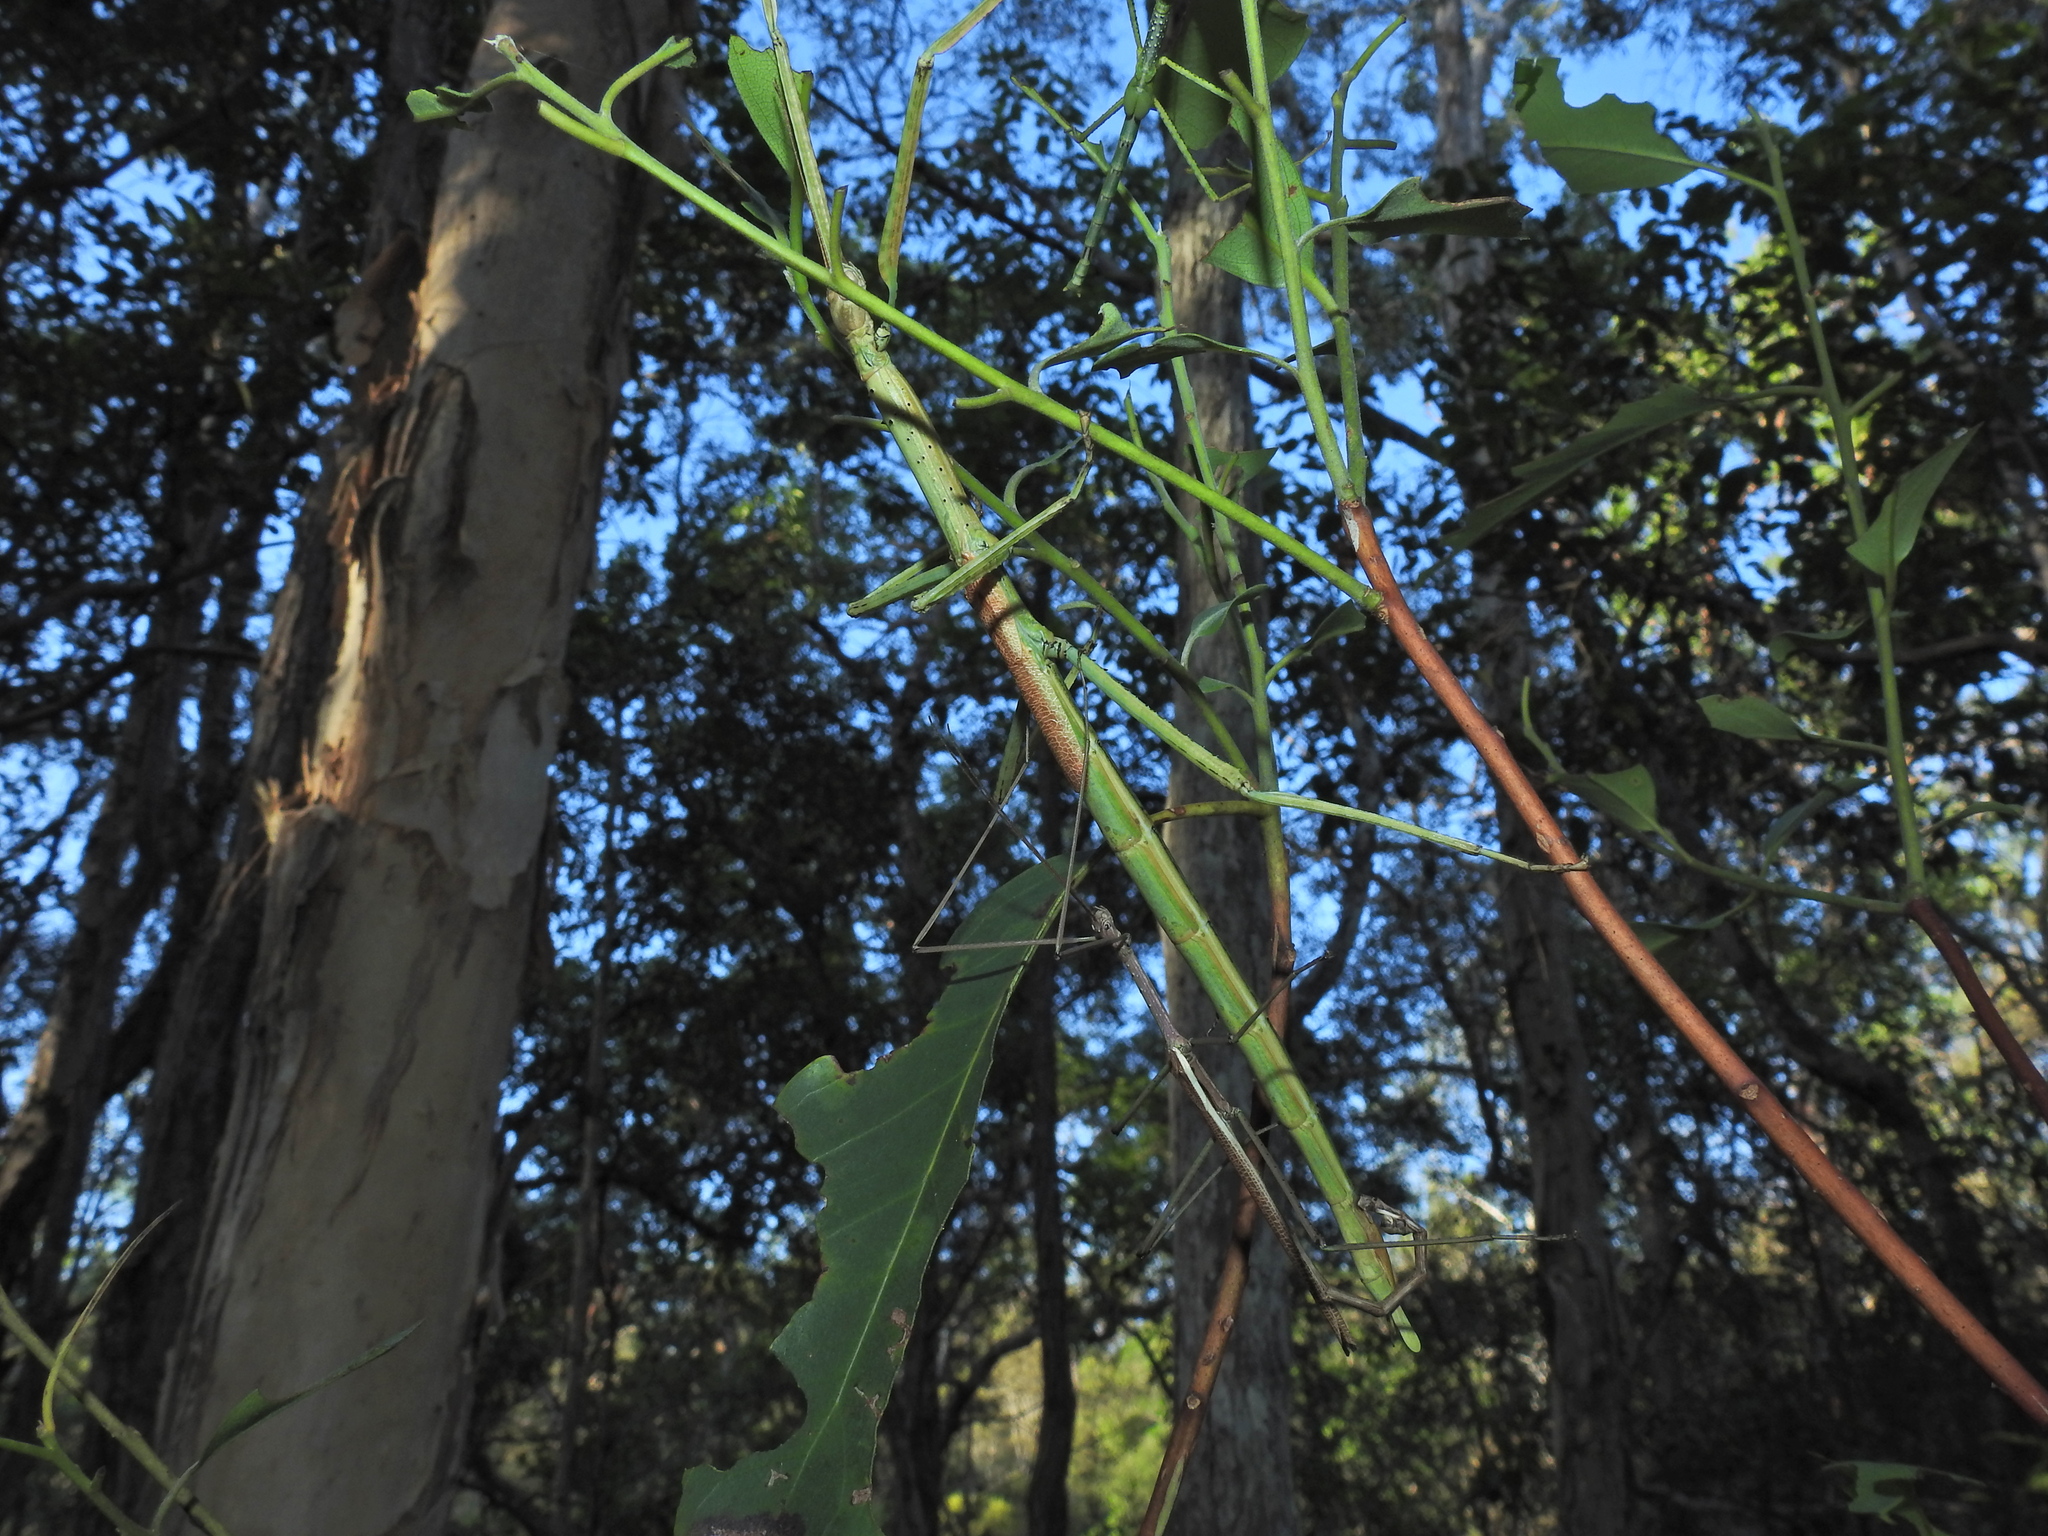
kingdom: Animalia
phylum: Arthropoda
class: Insecta
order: Phasmida
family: Phasmatidae
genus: Anchiale
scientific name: Anchiale austrotessulata
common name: Tessellated stick-insect
